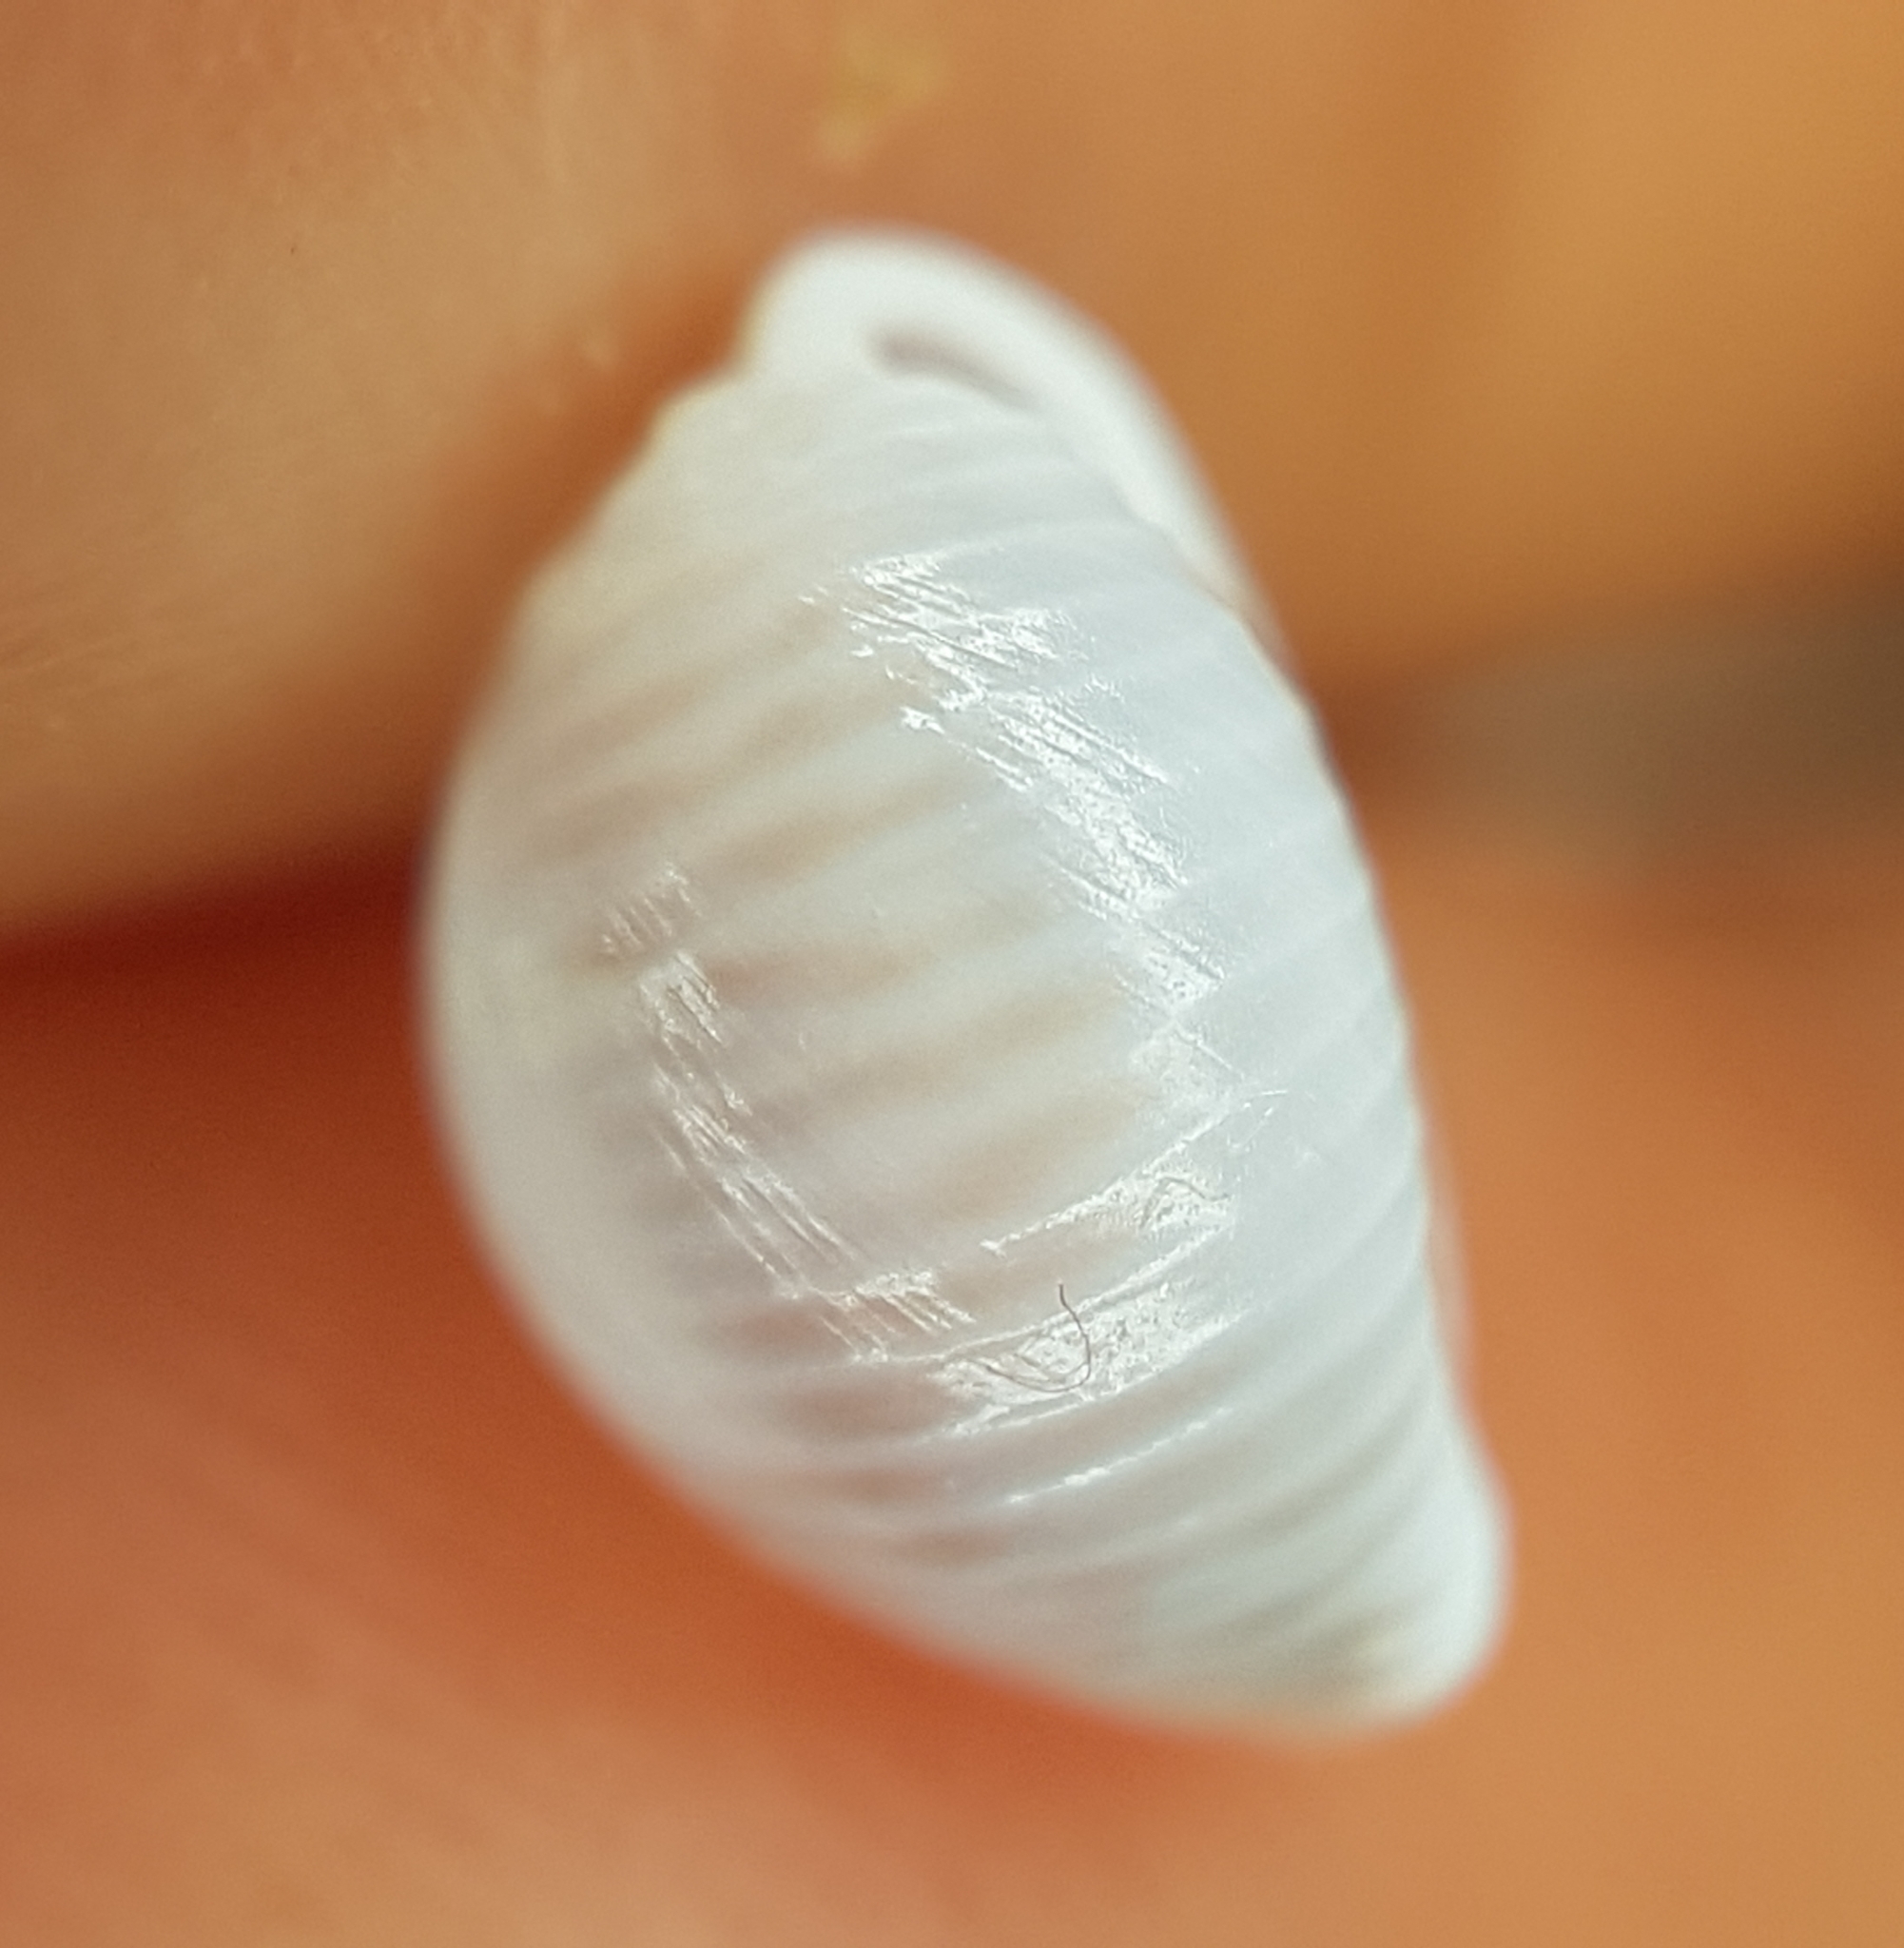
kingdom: Animalia
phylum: Mollusca
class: Gastropoda
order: Littorinimorpha
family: Triviidae
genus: Trivia
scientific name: Trivia monacha
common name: Spotted cowrie
